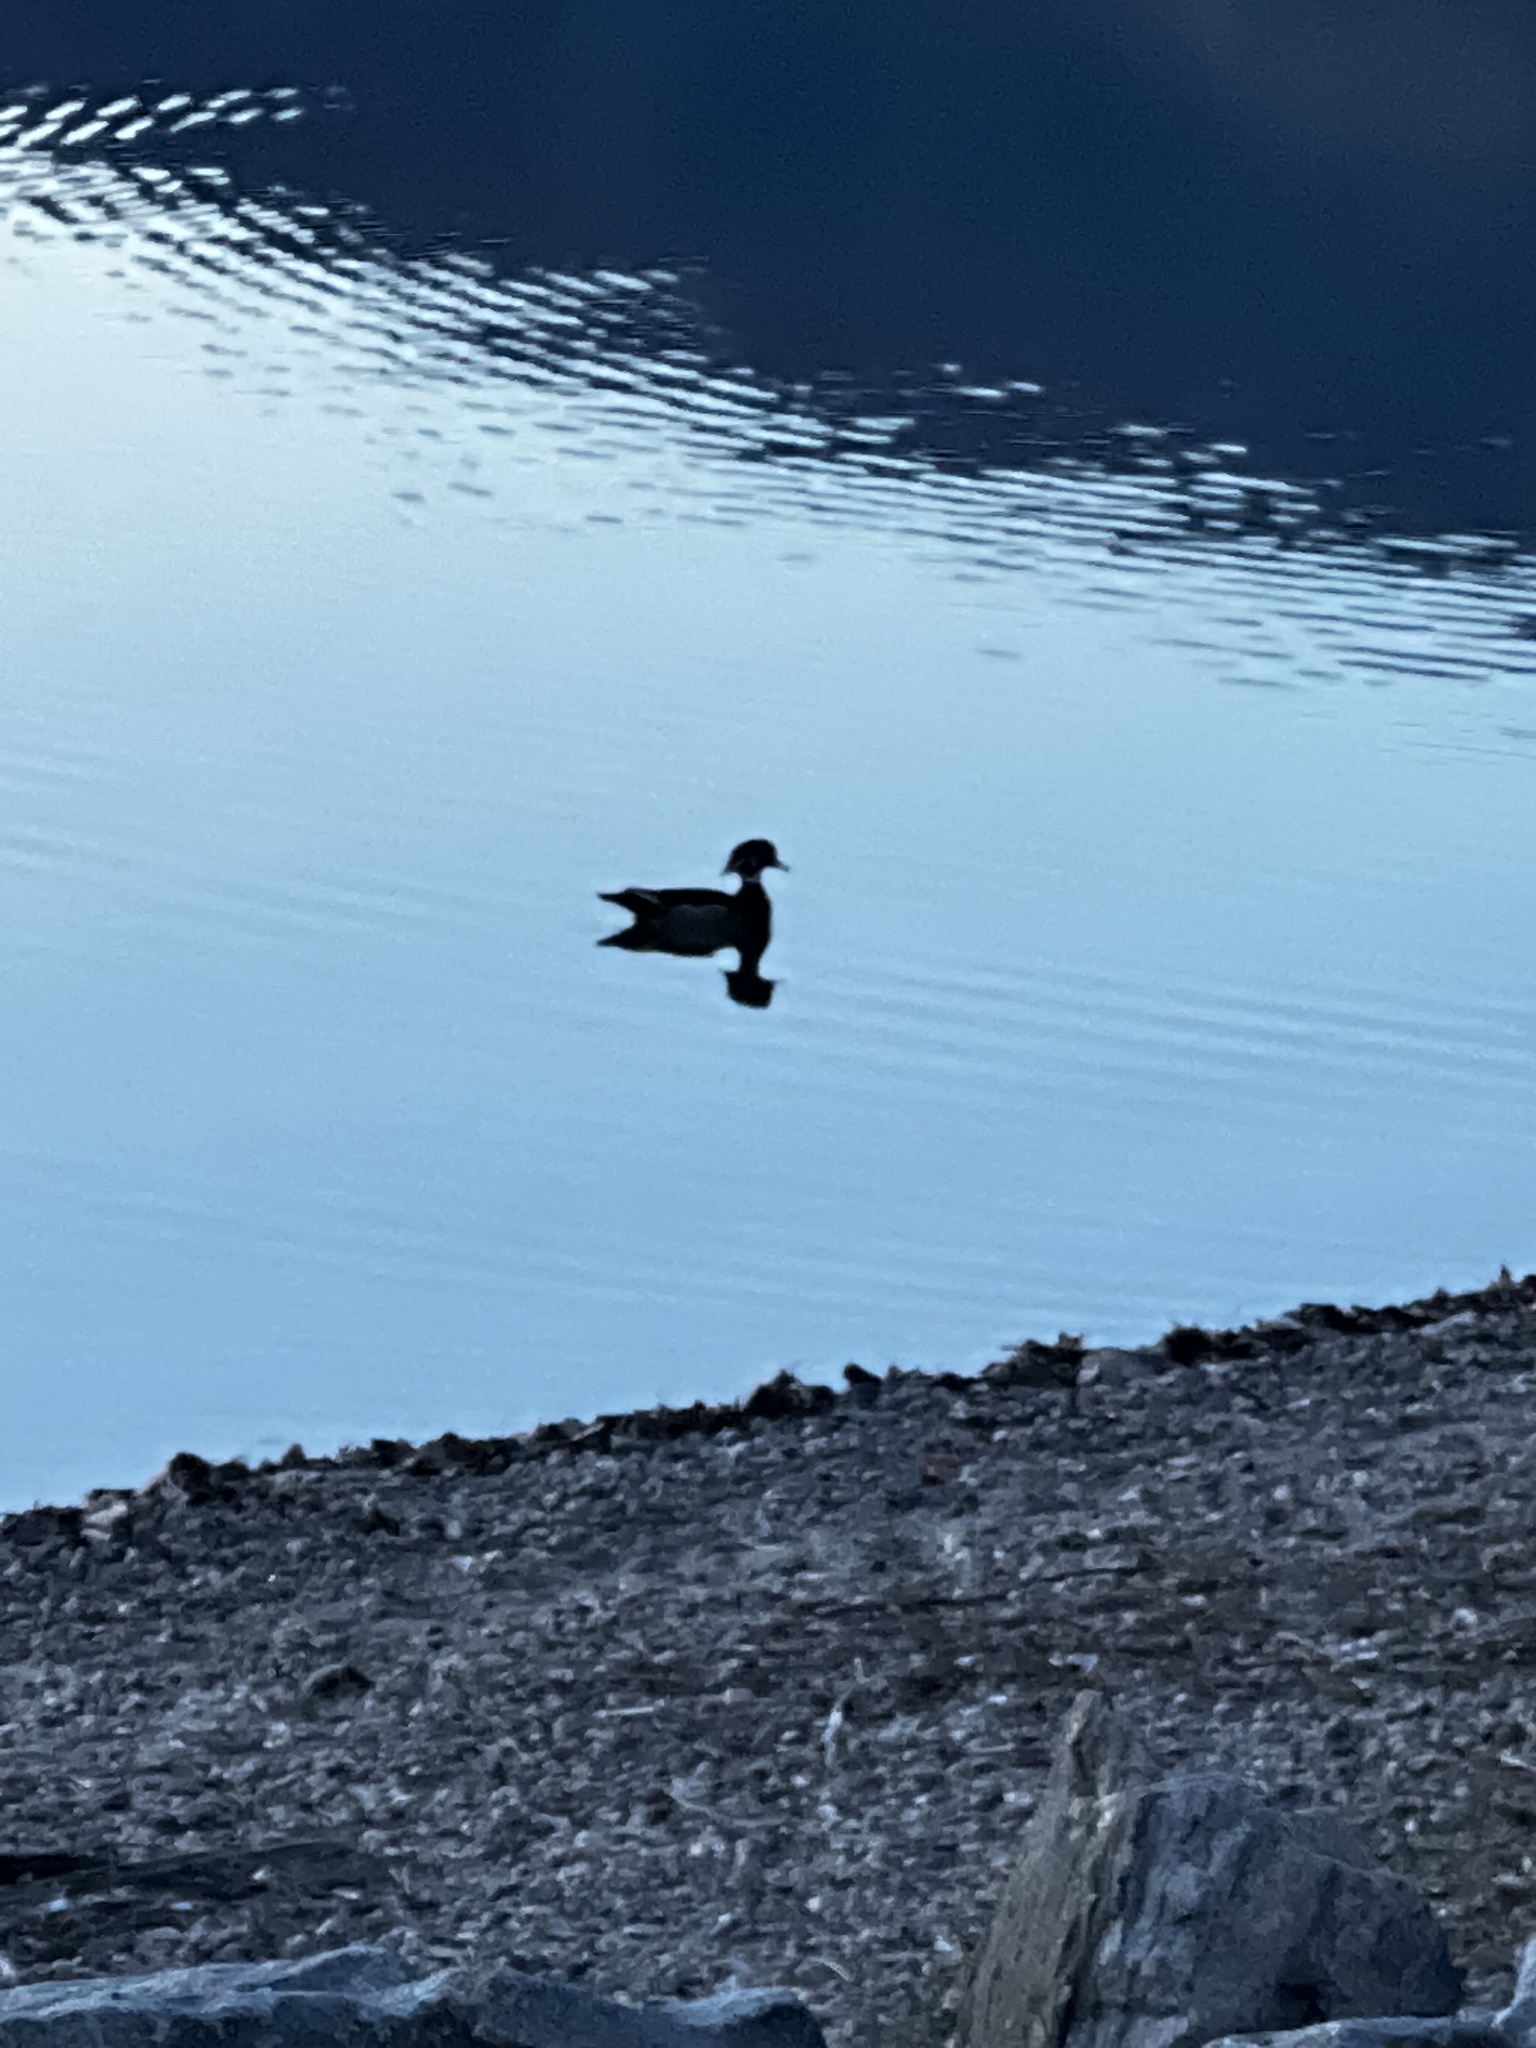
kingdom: Animalia
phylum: Chordata
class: Aves
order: Anseriformes
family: Anatidae
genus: Aix
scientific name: Aix sponsa
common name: Wood duck
